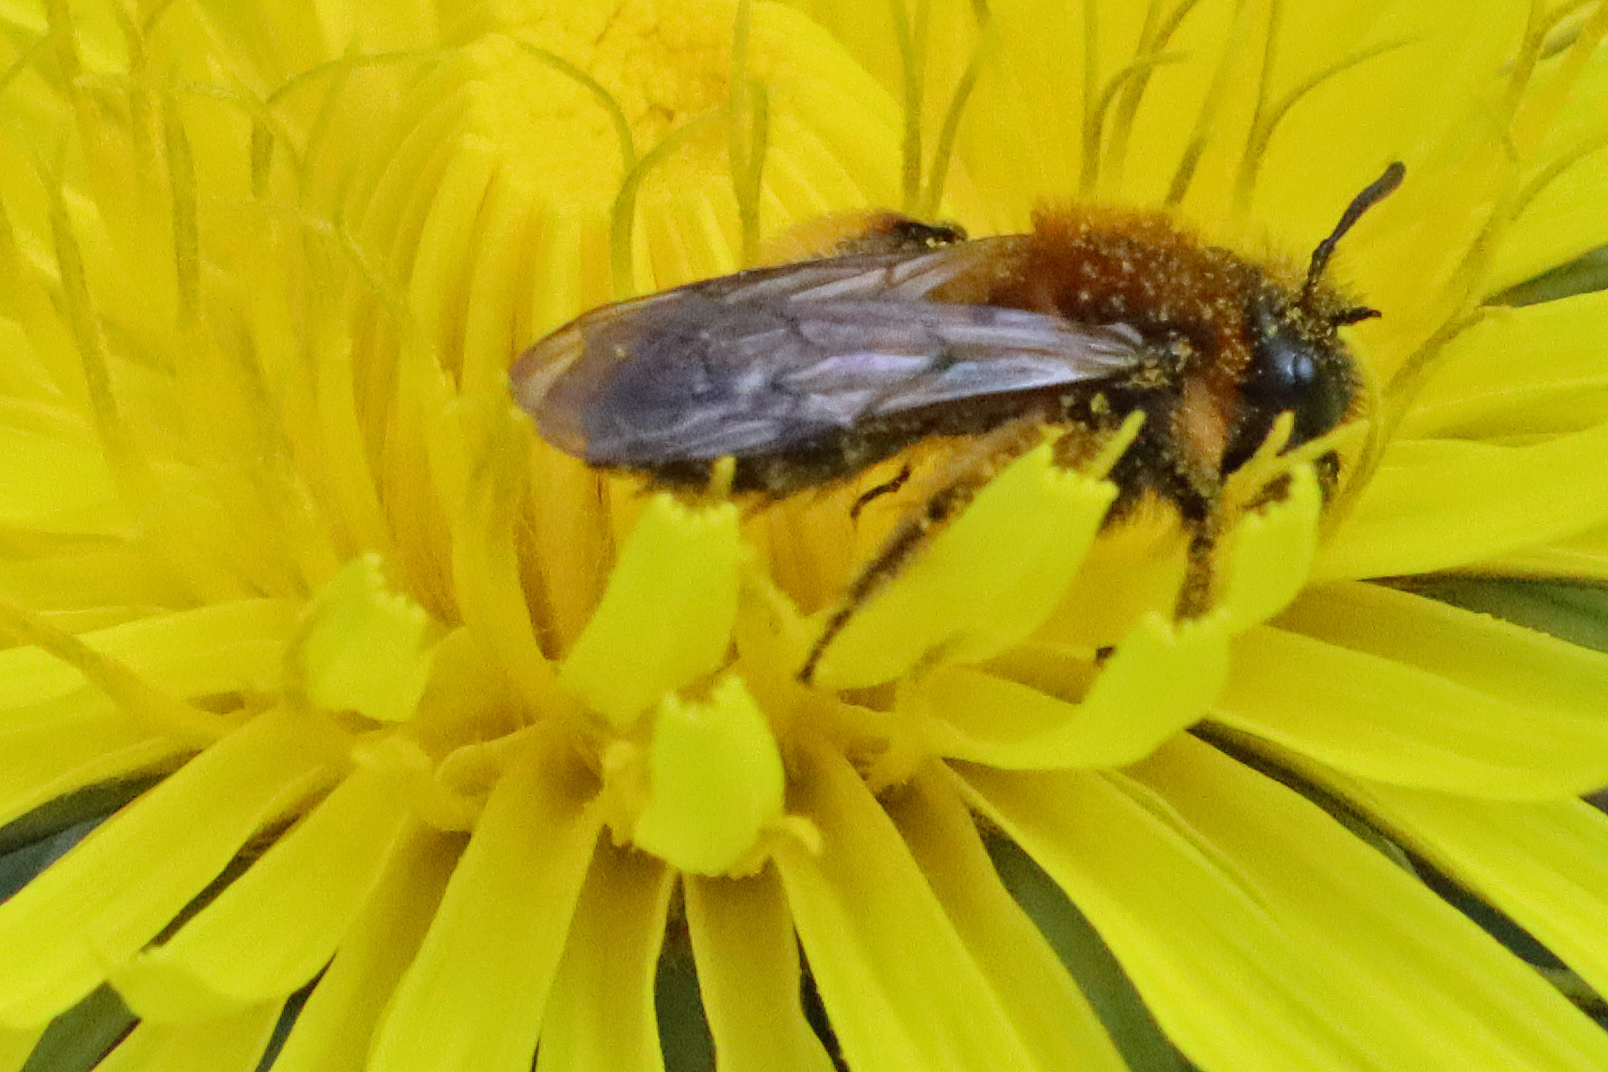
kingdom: Animalia
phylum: Arthropoda
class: Insecta
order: Hymenoptera
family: Andrenidae
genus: Andrena
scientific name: Andrena bicolor
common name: Gwynne's mining bee
